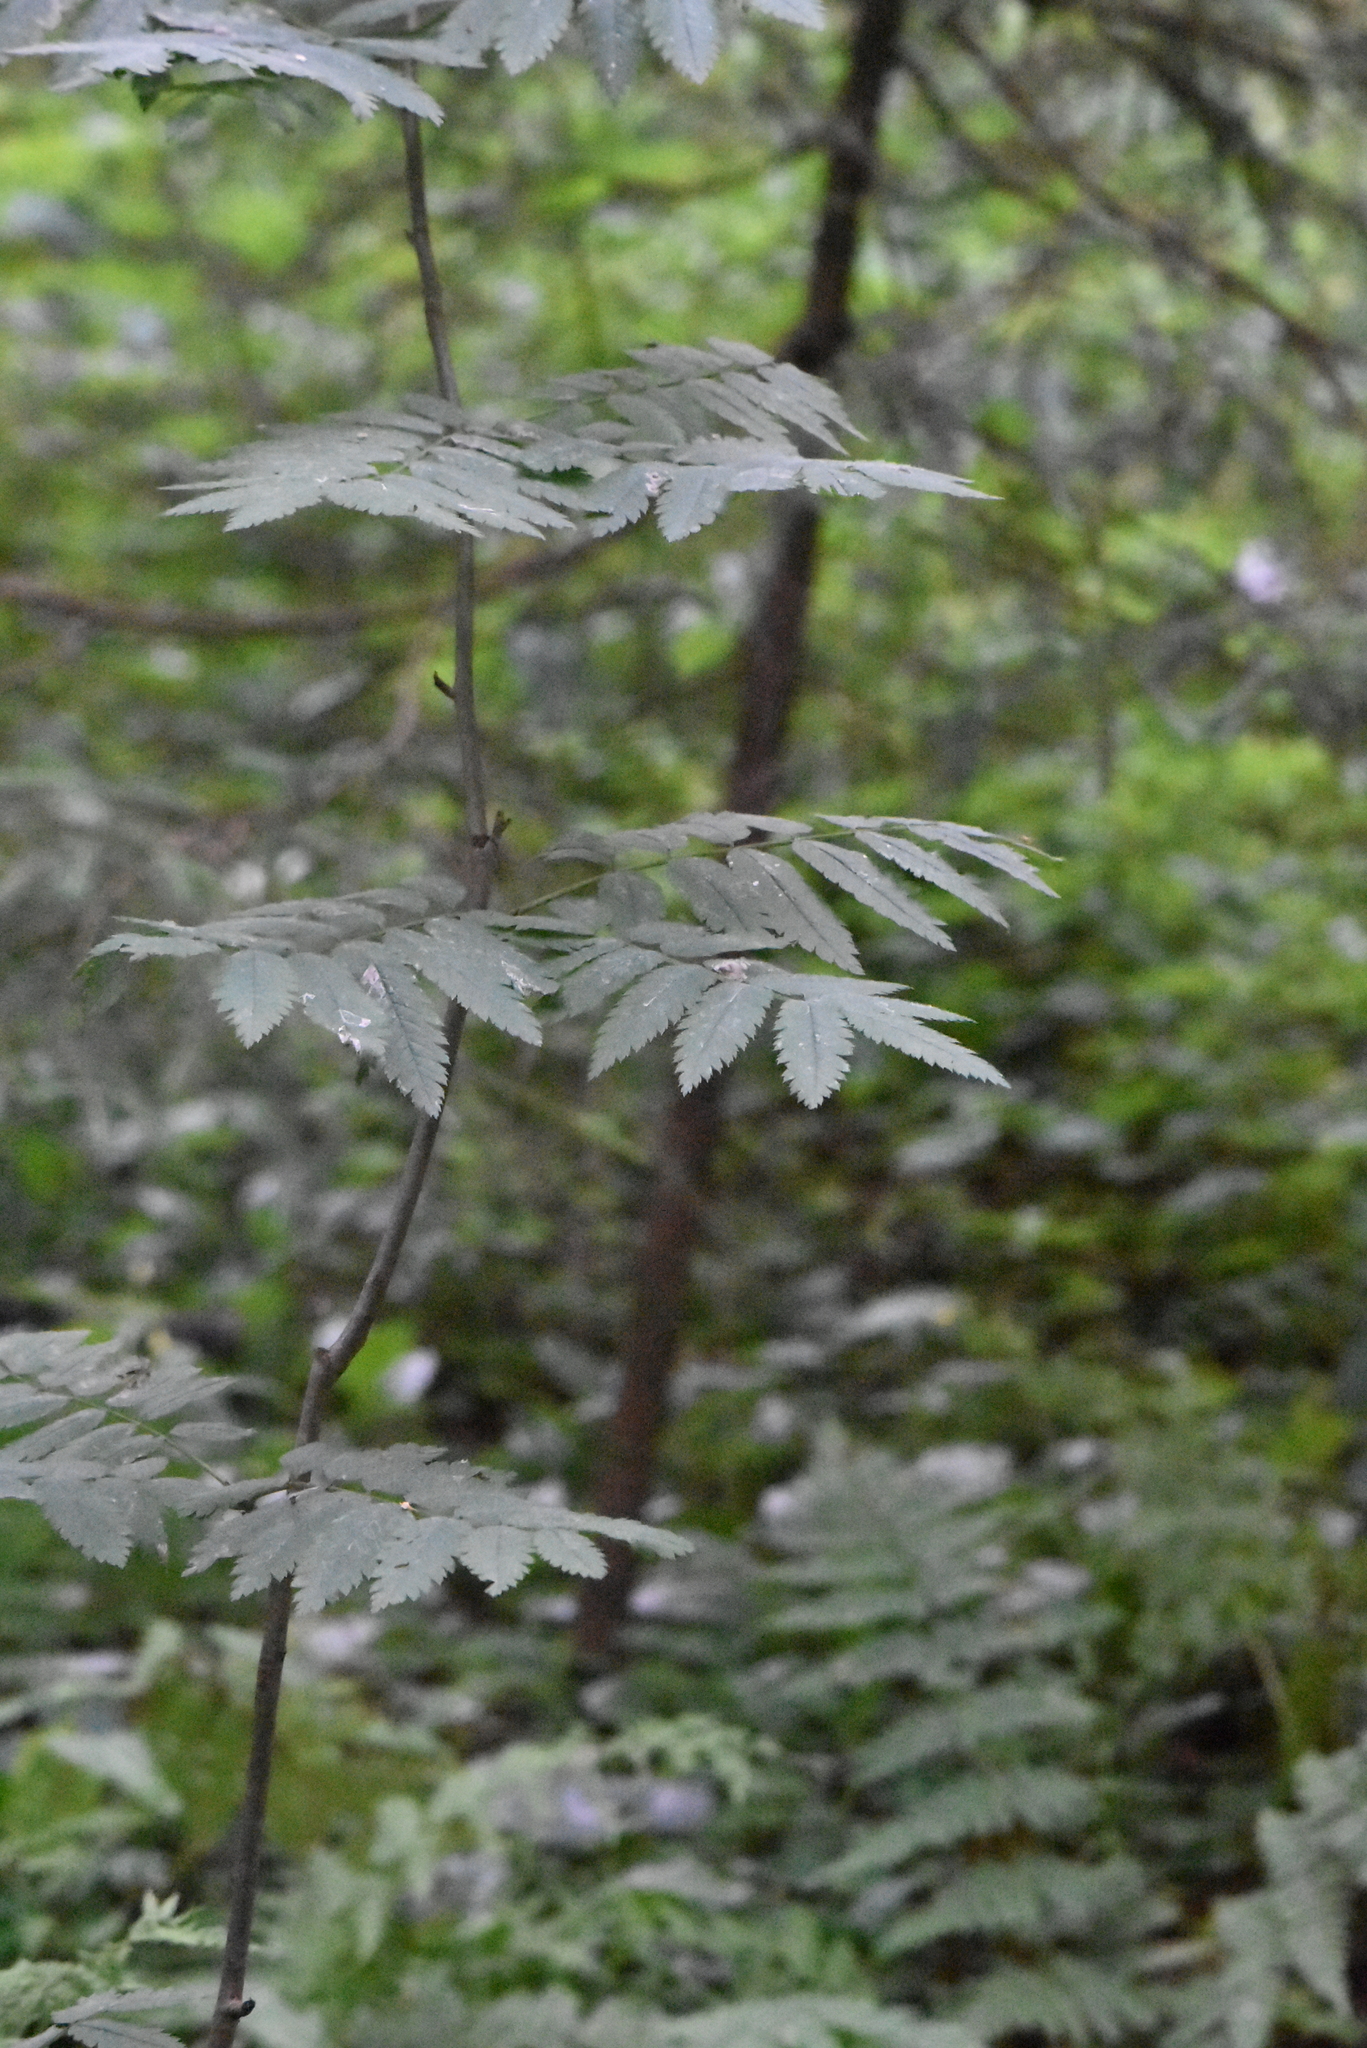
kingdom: Plantae
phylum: Tracheophyta
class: Magnoliopsida
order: Rosales
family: Rosaceae
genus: Sorbus
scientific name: Sorbus aucuparia
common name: Rowan
